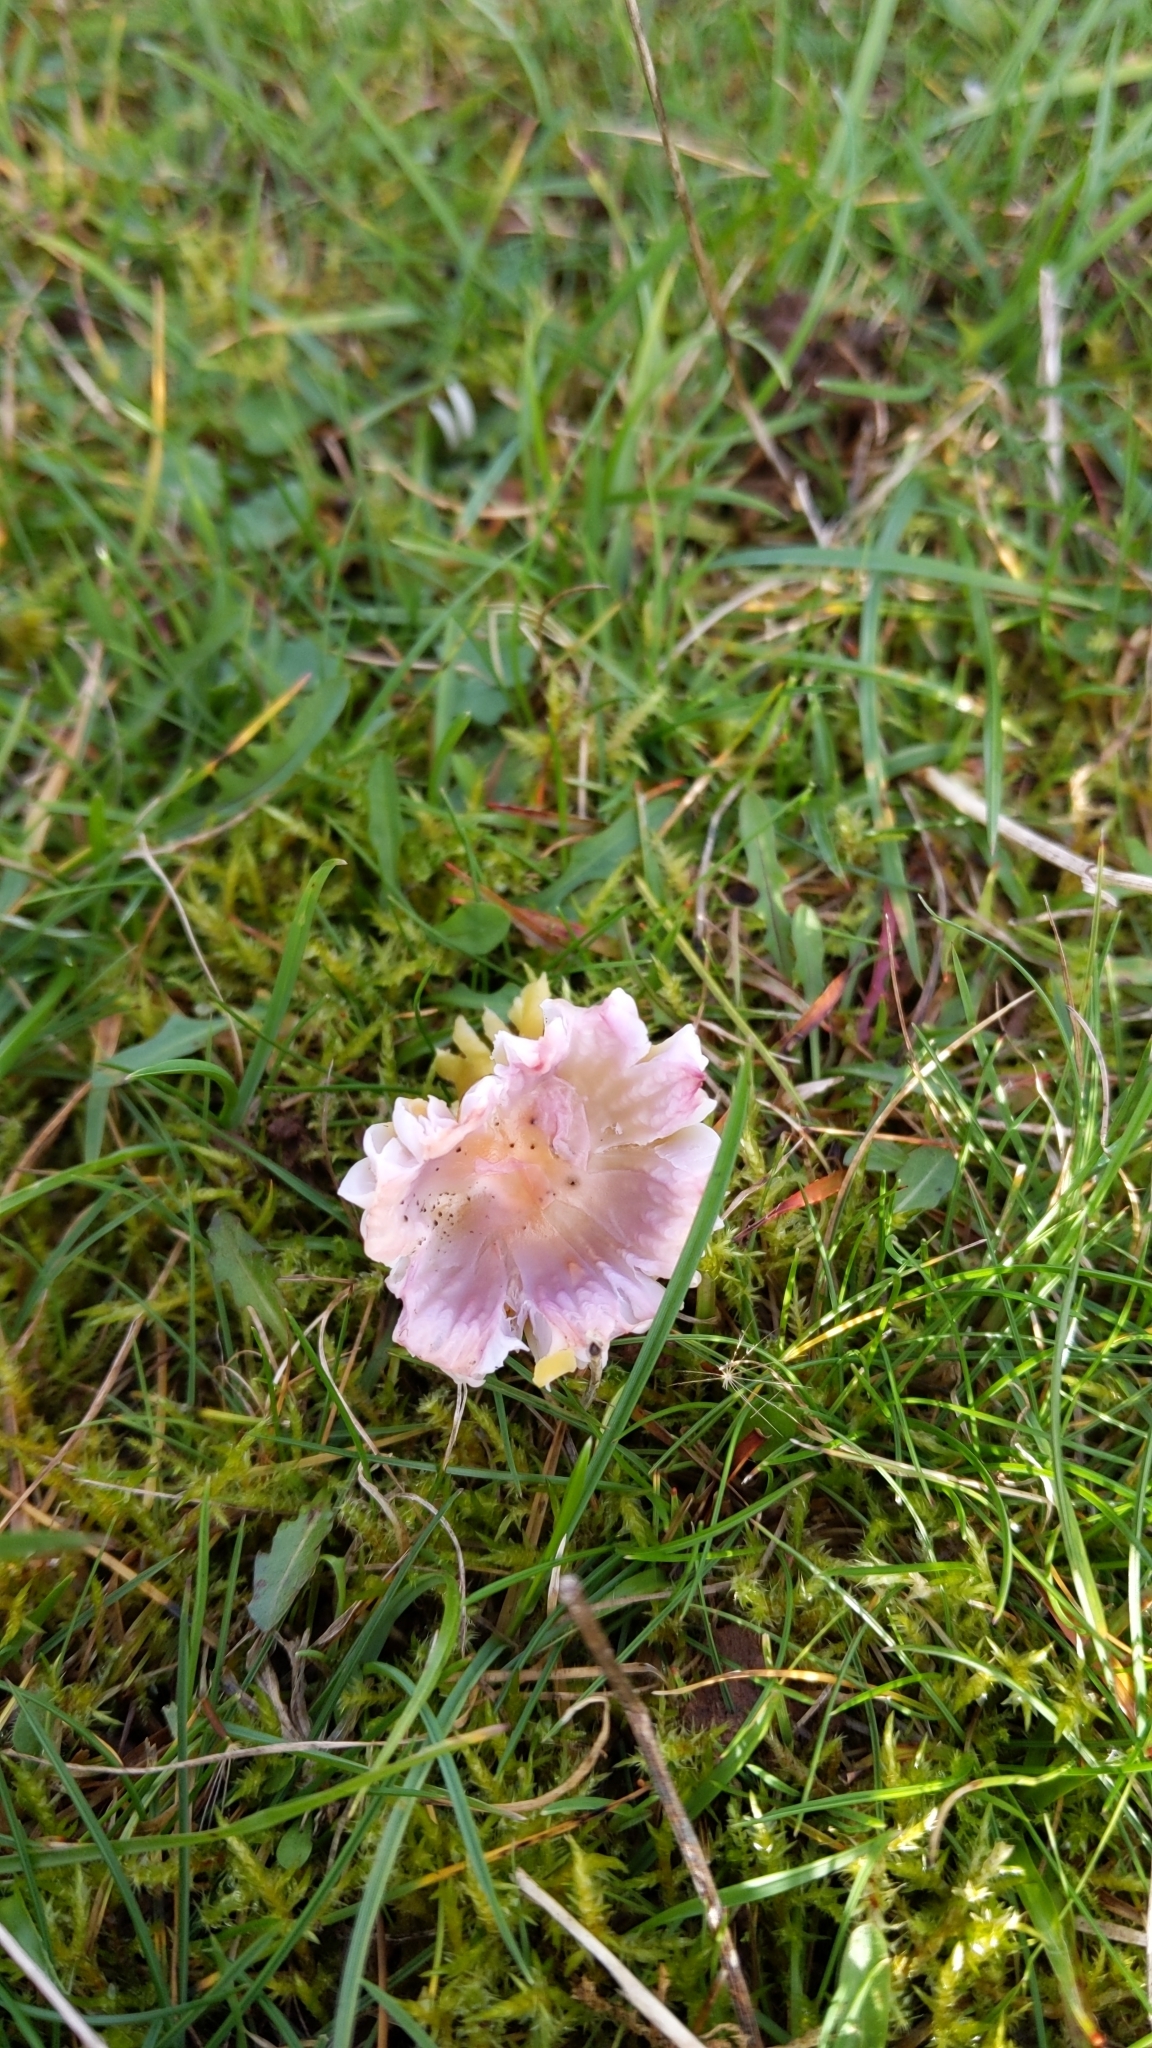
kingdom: Fungi
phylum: Basidiomycota
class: Agaricomycetes
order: Agaricales
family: Hygrophoraceae
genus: Gliophorus
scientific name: Gliophorus psittacinus
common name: Parrot wax-cap
